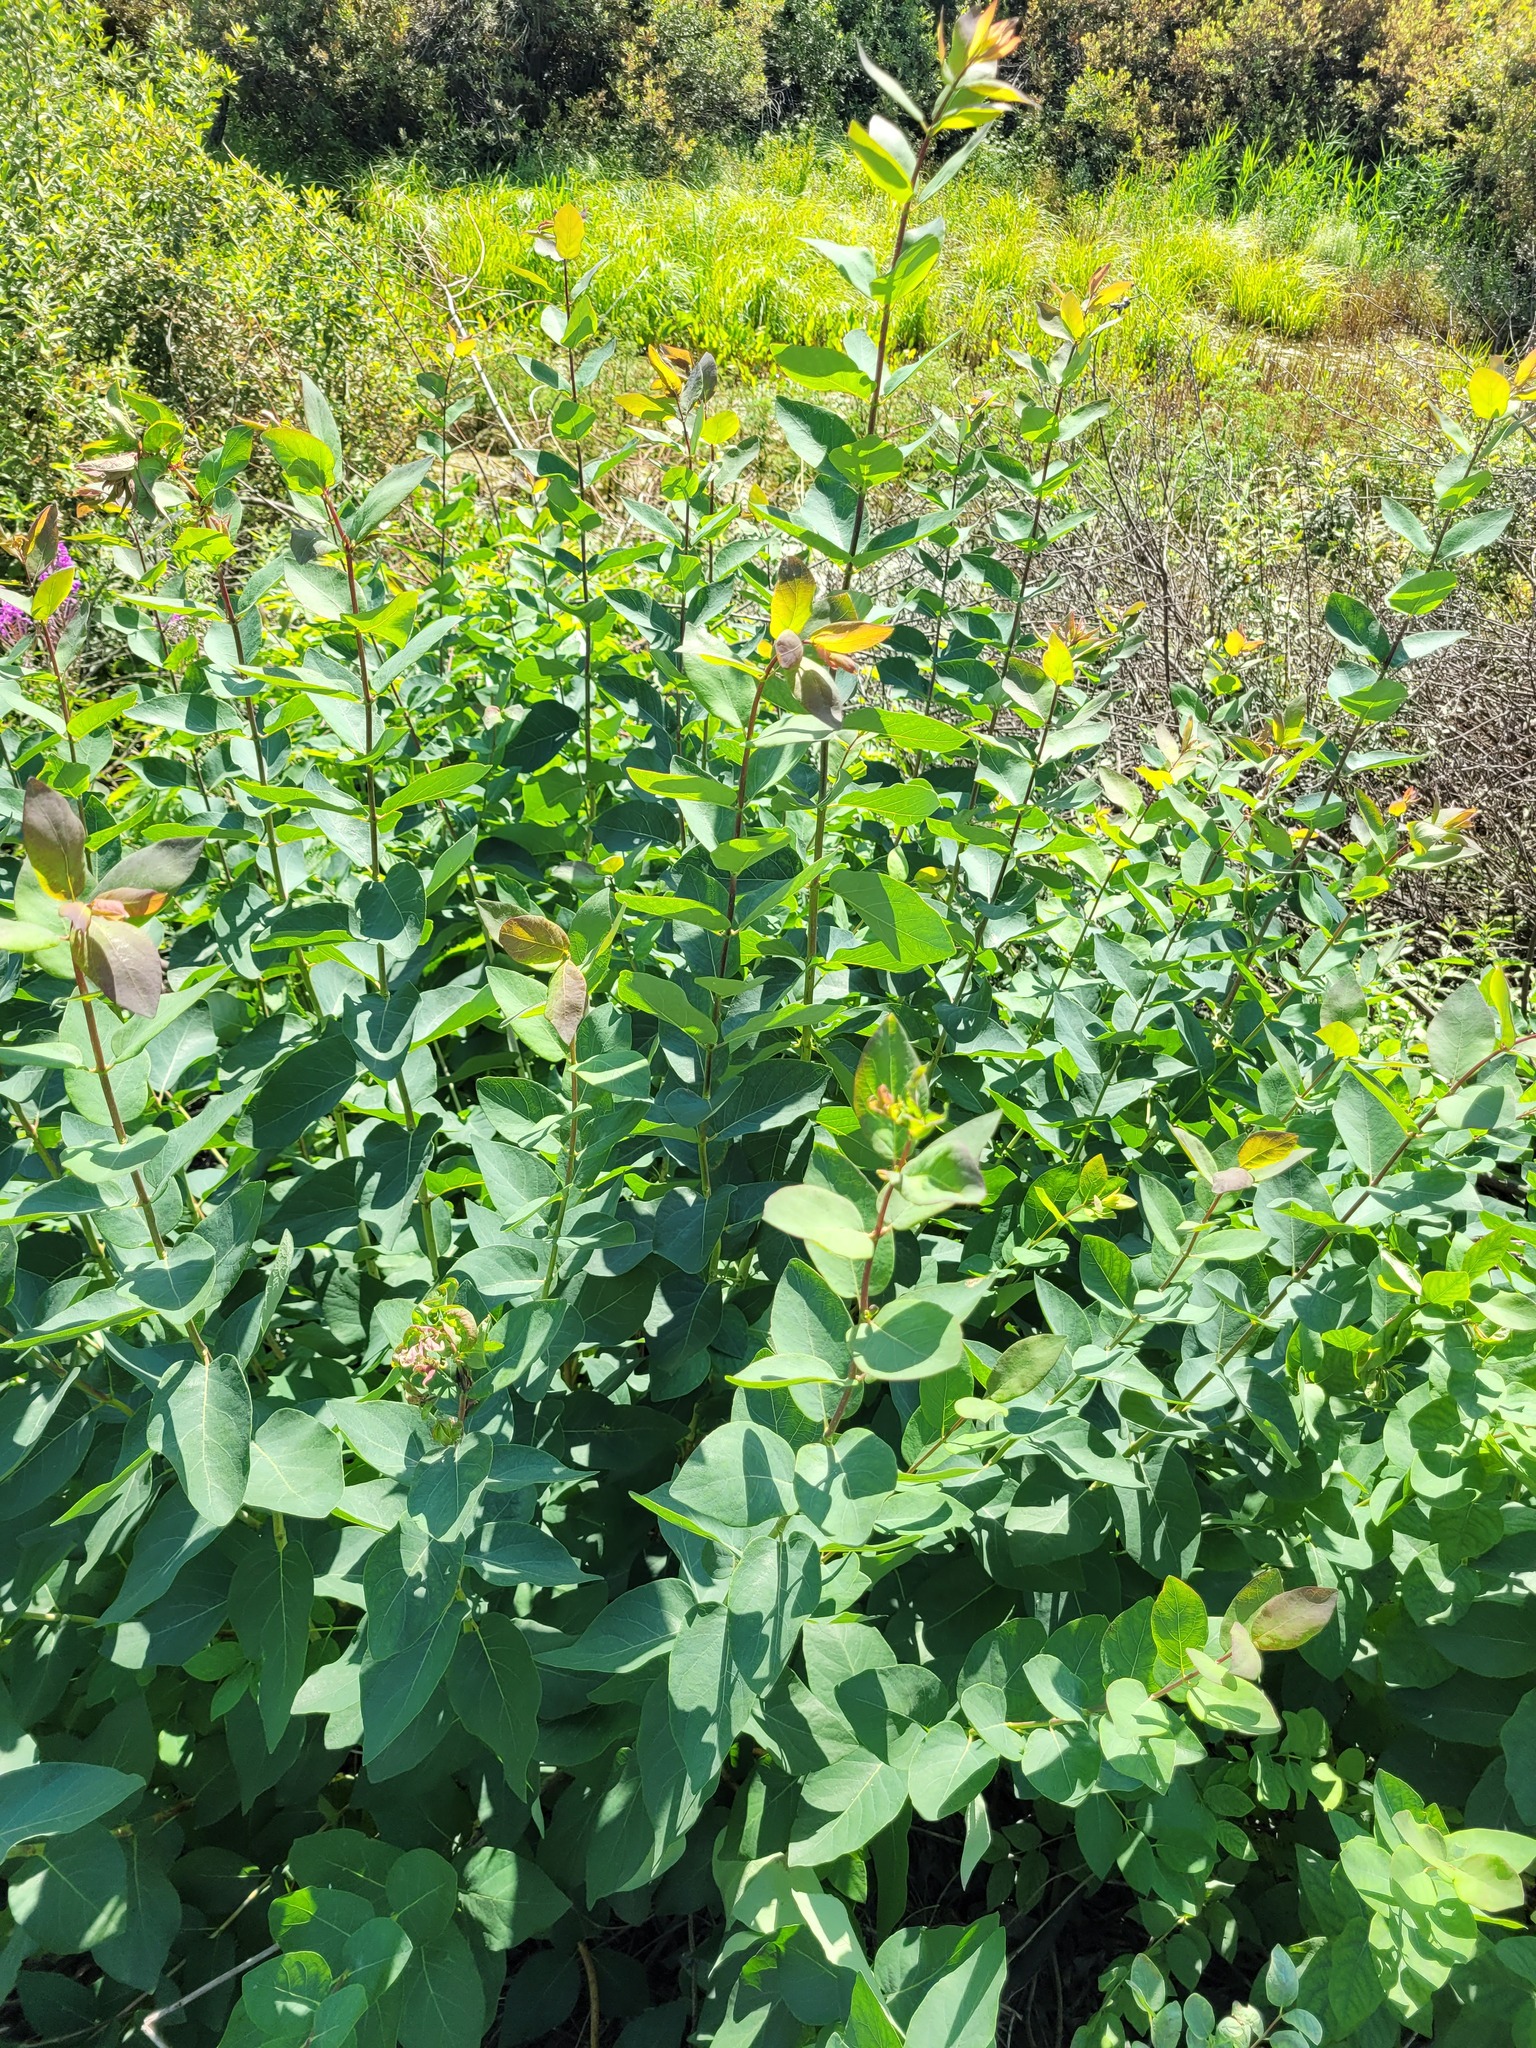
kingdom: Plantae
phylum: Tracheophyta
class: Magnoliopsida
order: Dipsacales
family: Caprifoliaceae
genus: Lonicera
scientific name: Lonicera tatarica
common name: Tatarian honeysuckle
